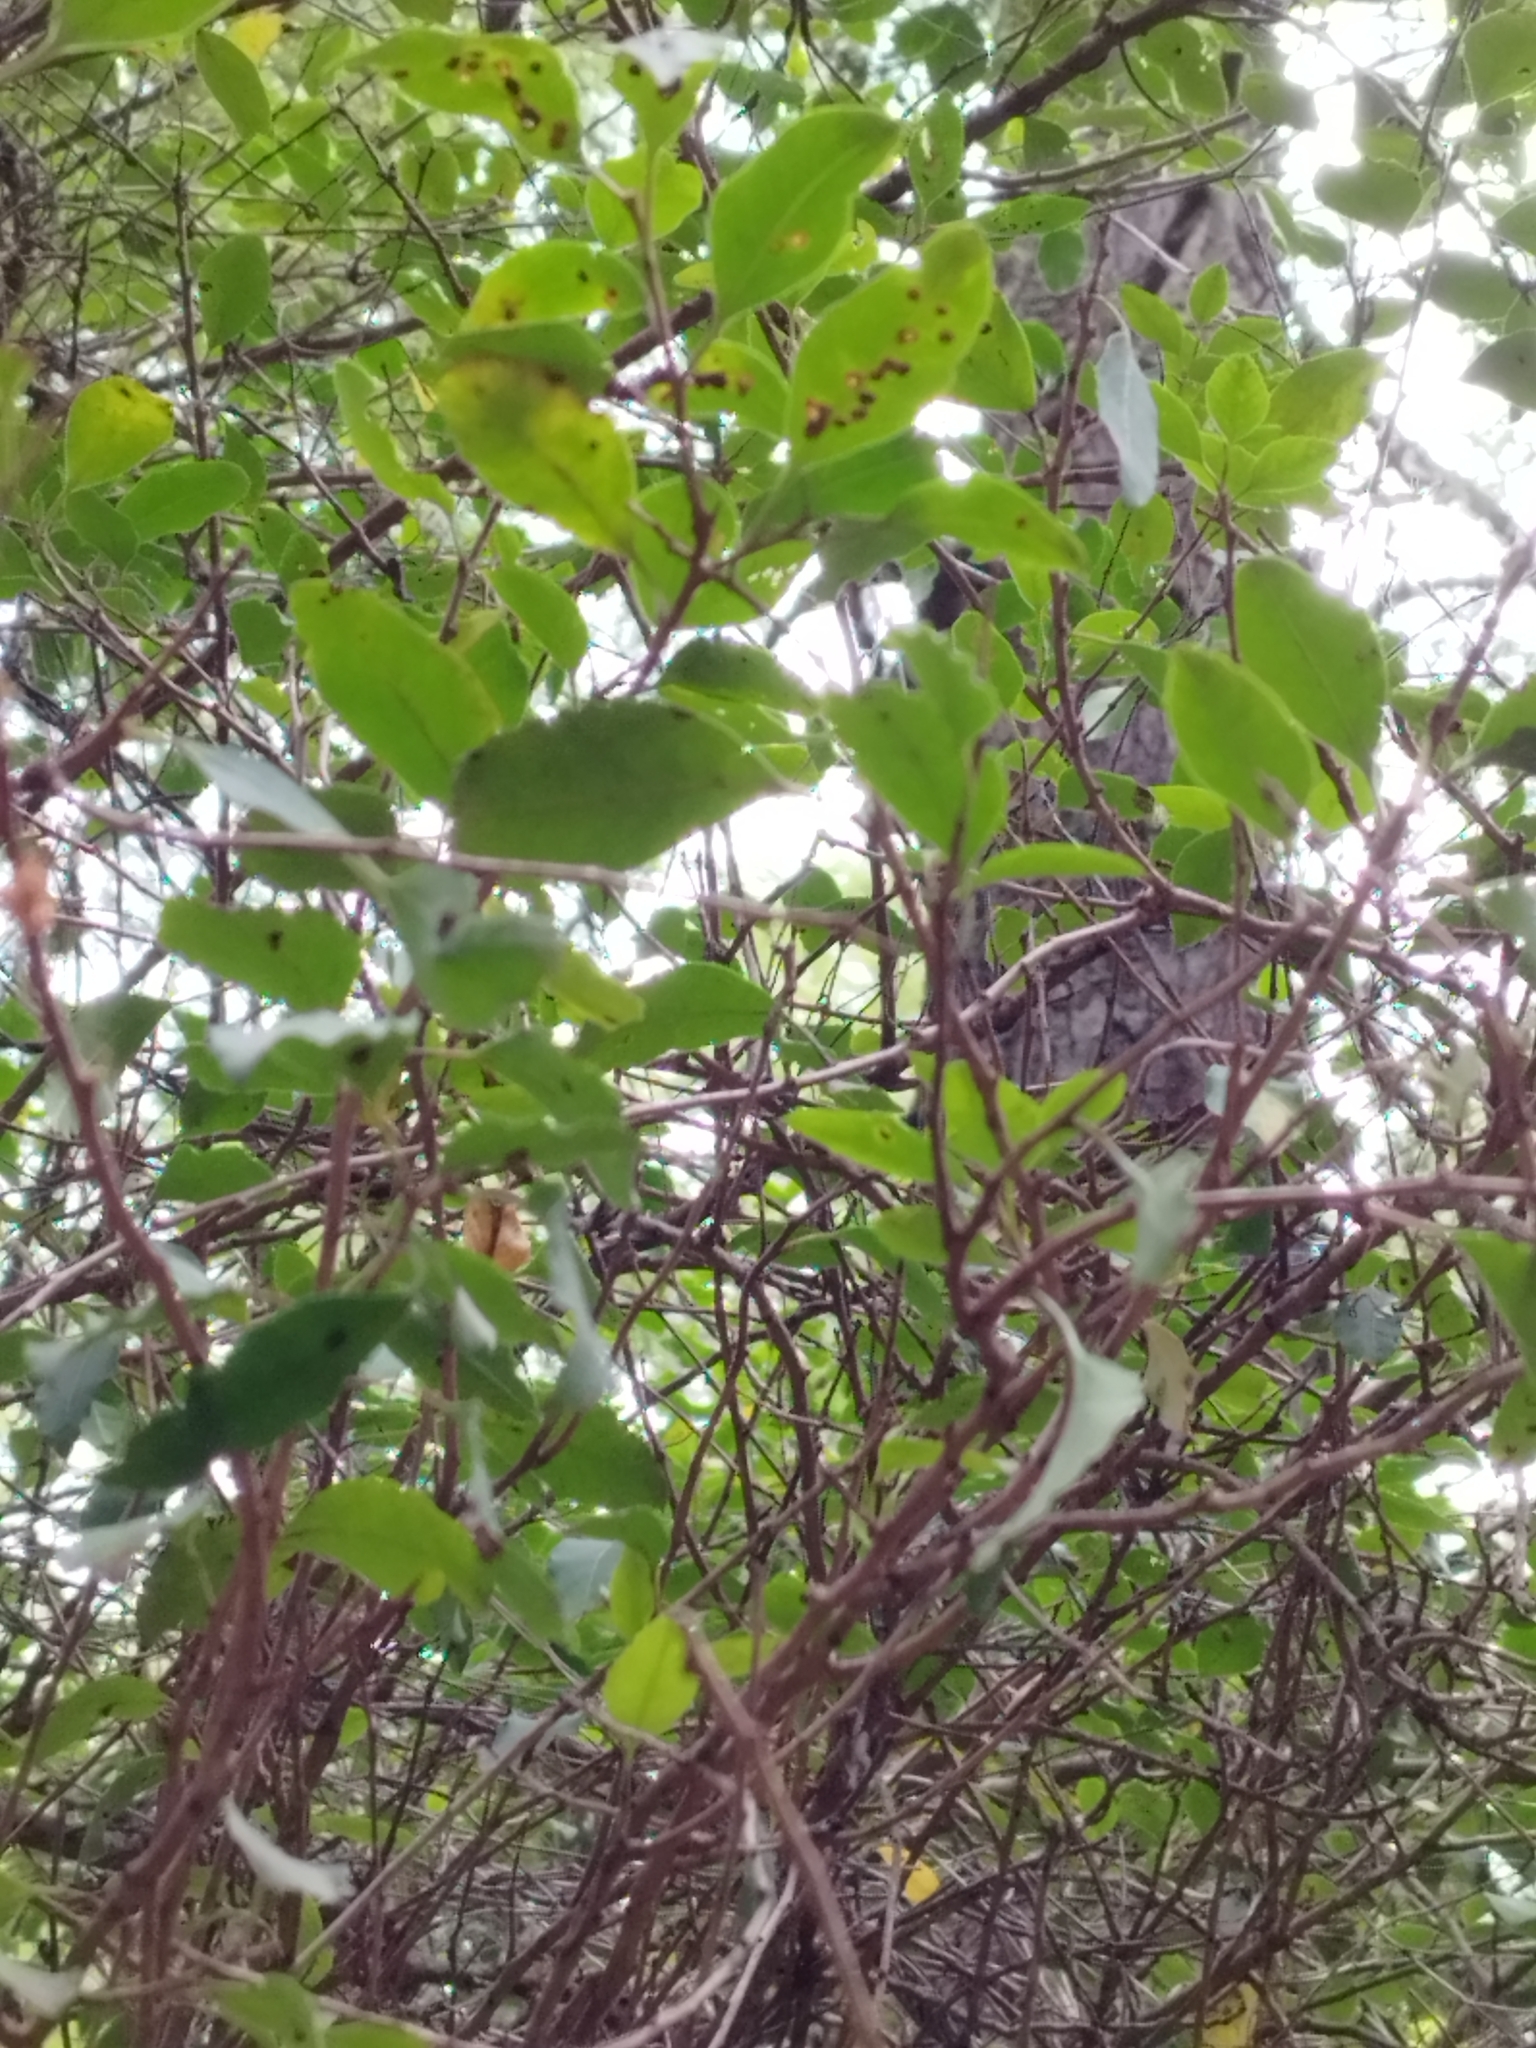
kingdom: Plantae
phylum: Tracheophyta
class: Magnoliopsida
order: Sapindales
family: Anacardiaceae
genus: Schinus
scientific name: Schinus patagonica
